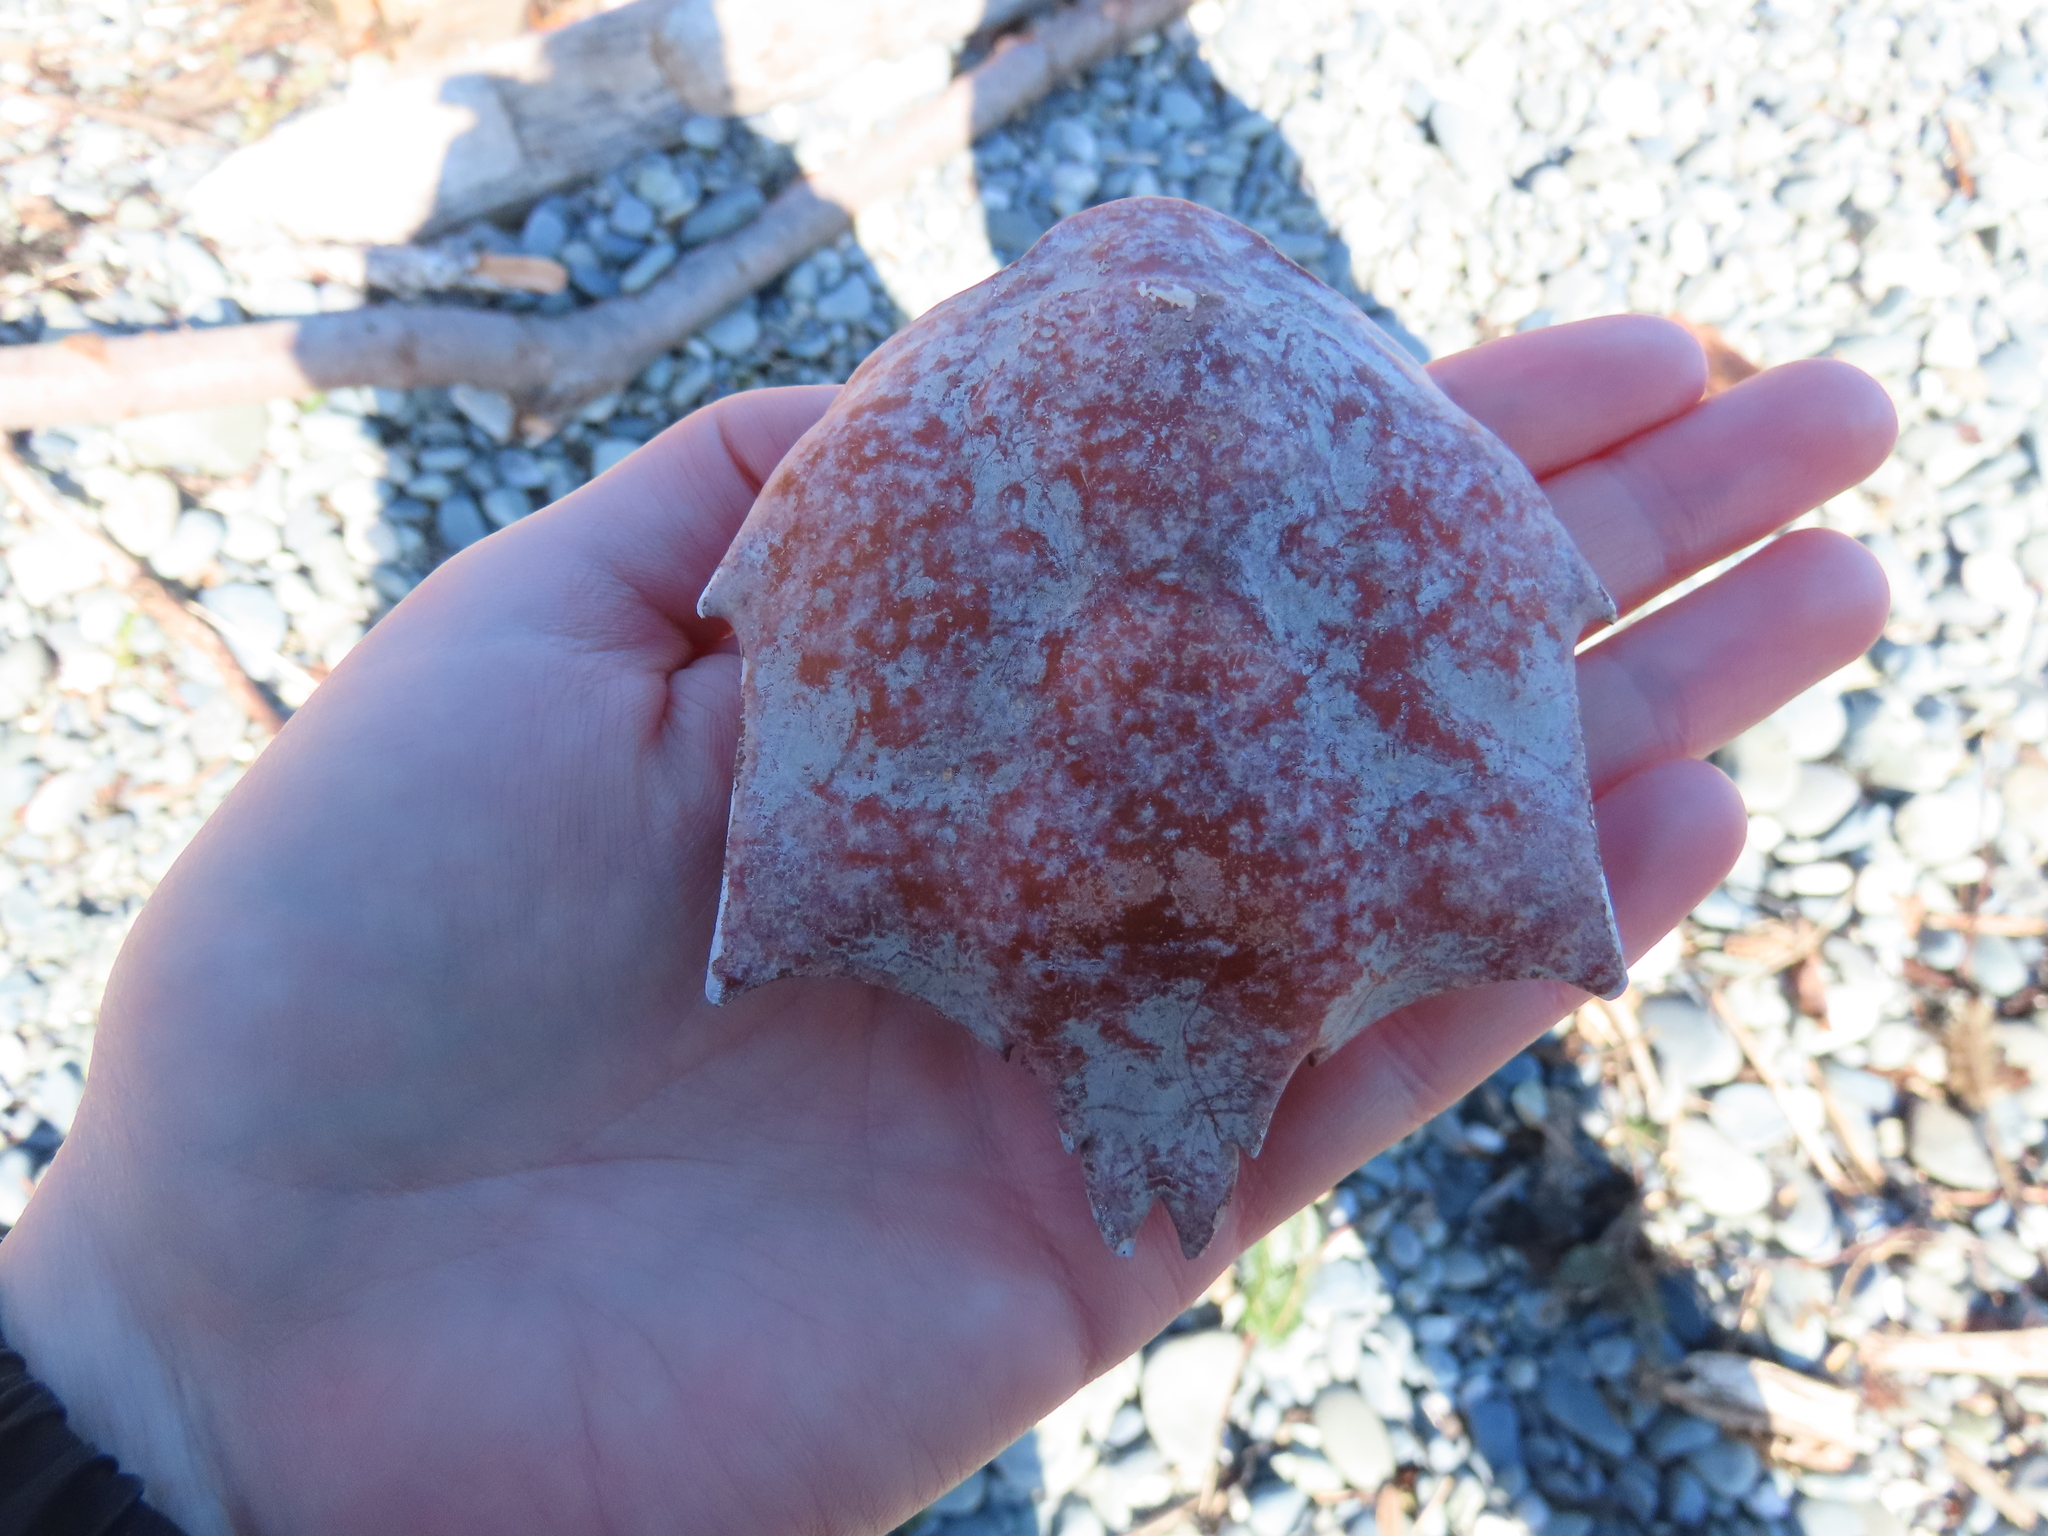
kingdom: Animalia
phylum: Arthropoda
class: Malacostraca
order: Decapoda
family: Epialtidae
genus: Pugettia
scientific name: Pugettia producta
